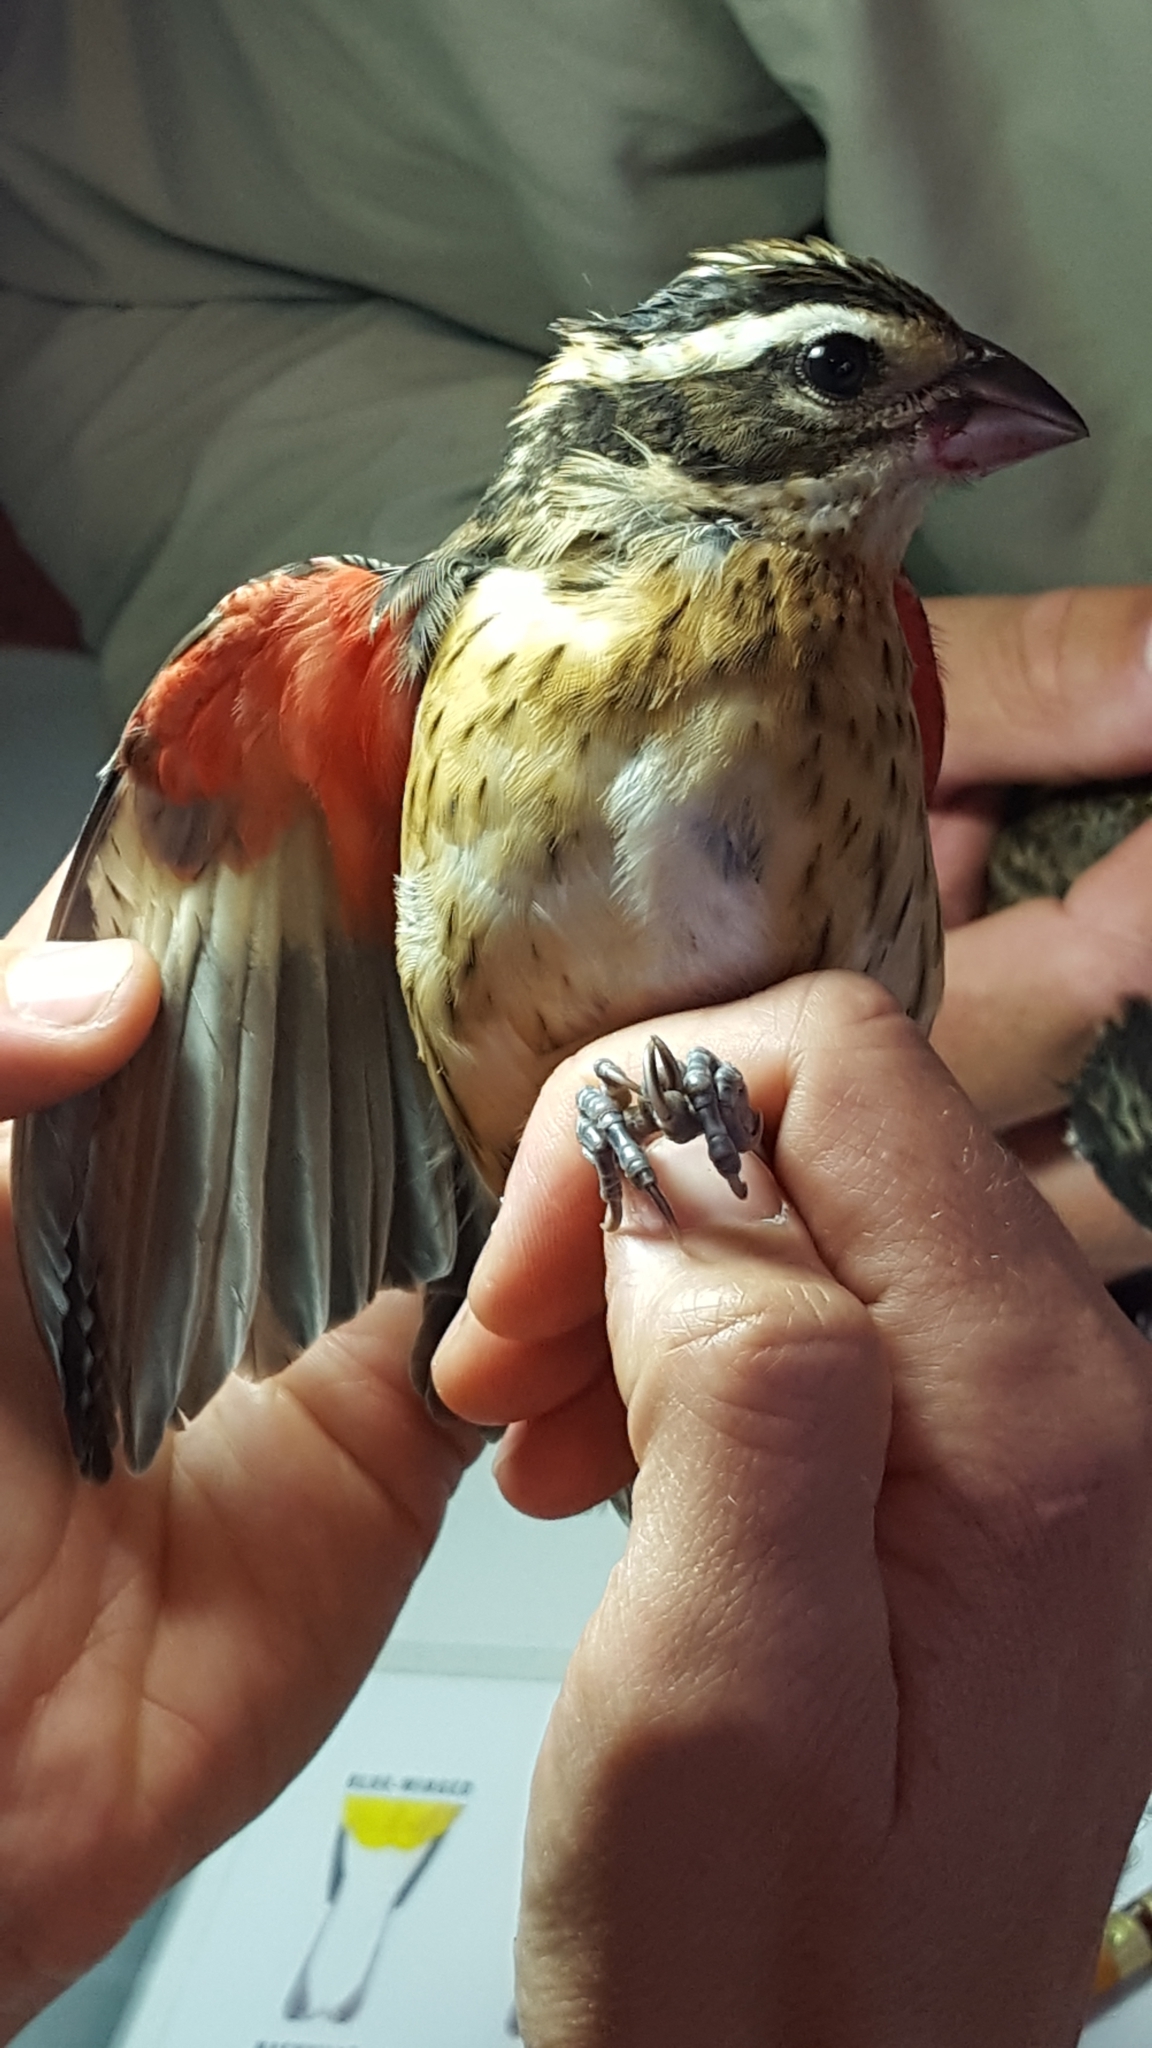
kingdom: Animalia
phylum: Chordata
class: Aves
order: Passeriformes
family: Cardinalidae
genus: Pheucticus
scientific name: Pheucticus ludovicianus
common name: Rose-breasted grosbeak
